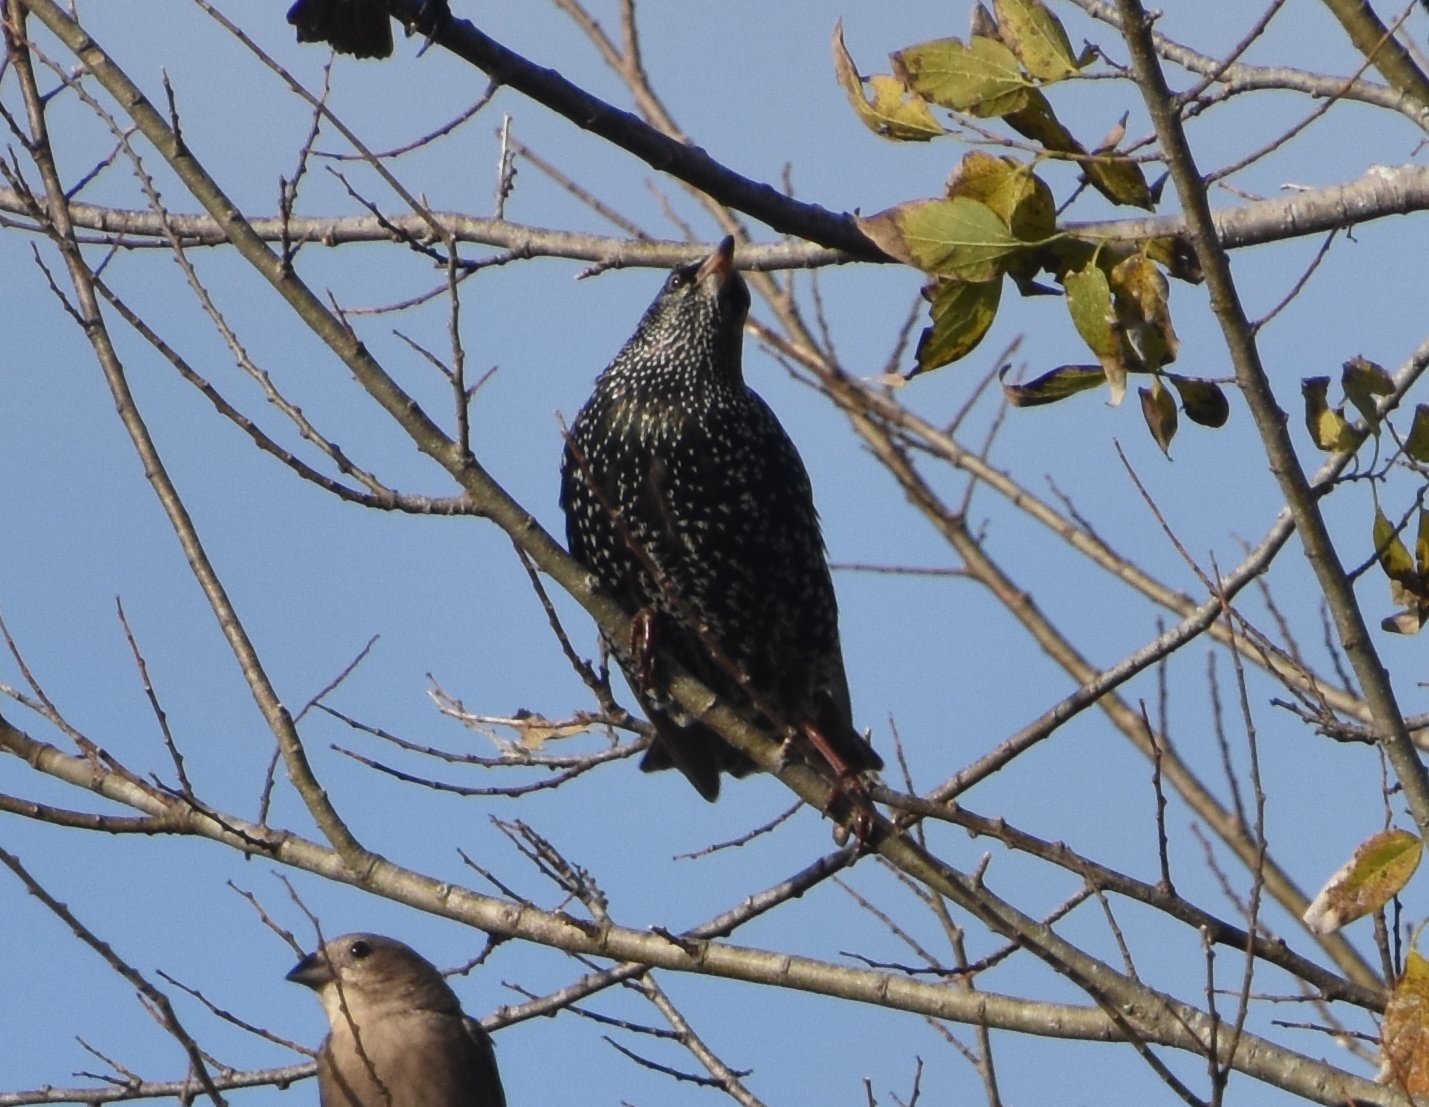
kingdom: Animalia
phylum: Chordata
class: Aves
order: Passeriformes
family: Sturnidae
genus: Sturnus
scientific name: Sturnus vulgaris
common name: Common starling
